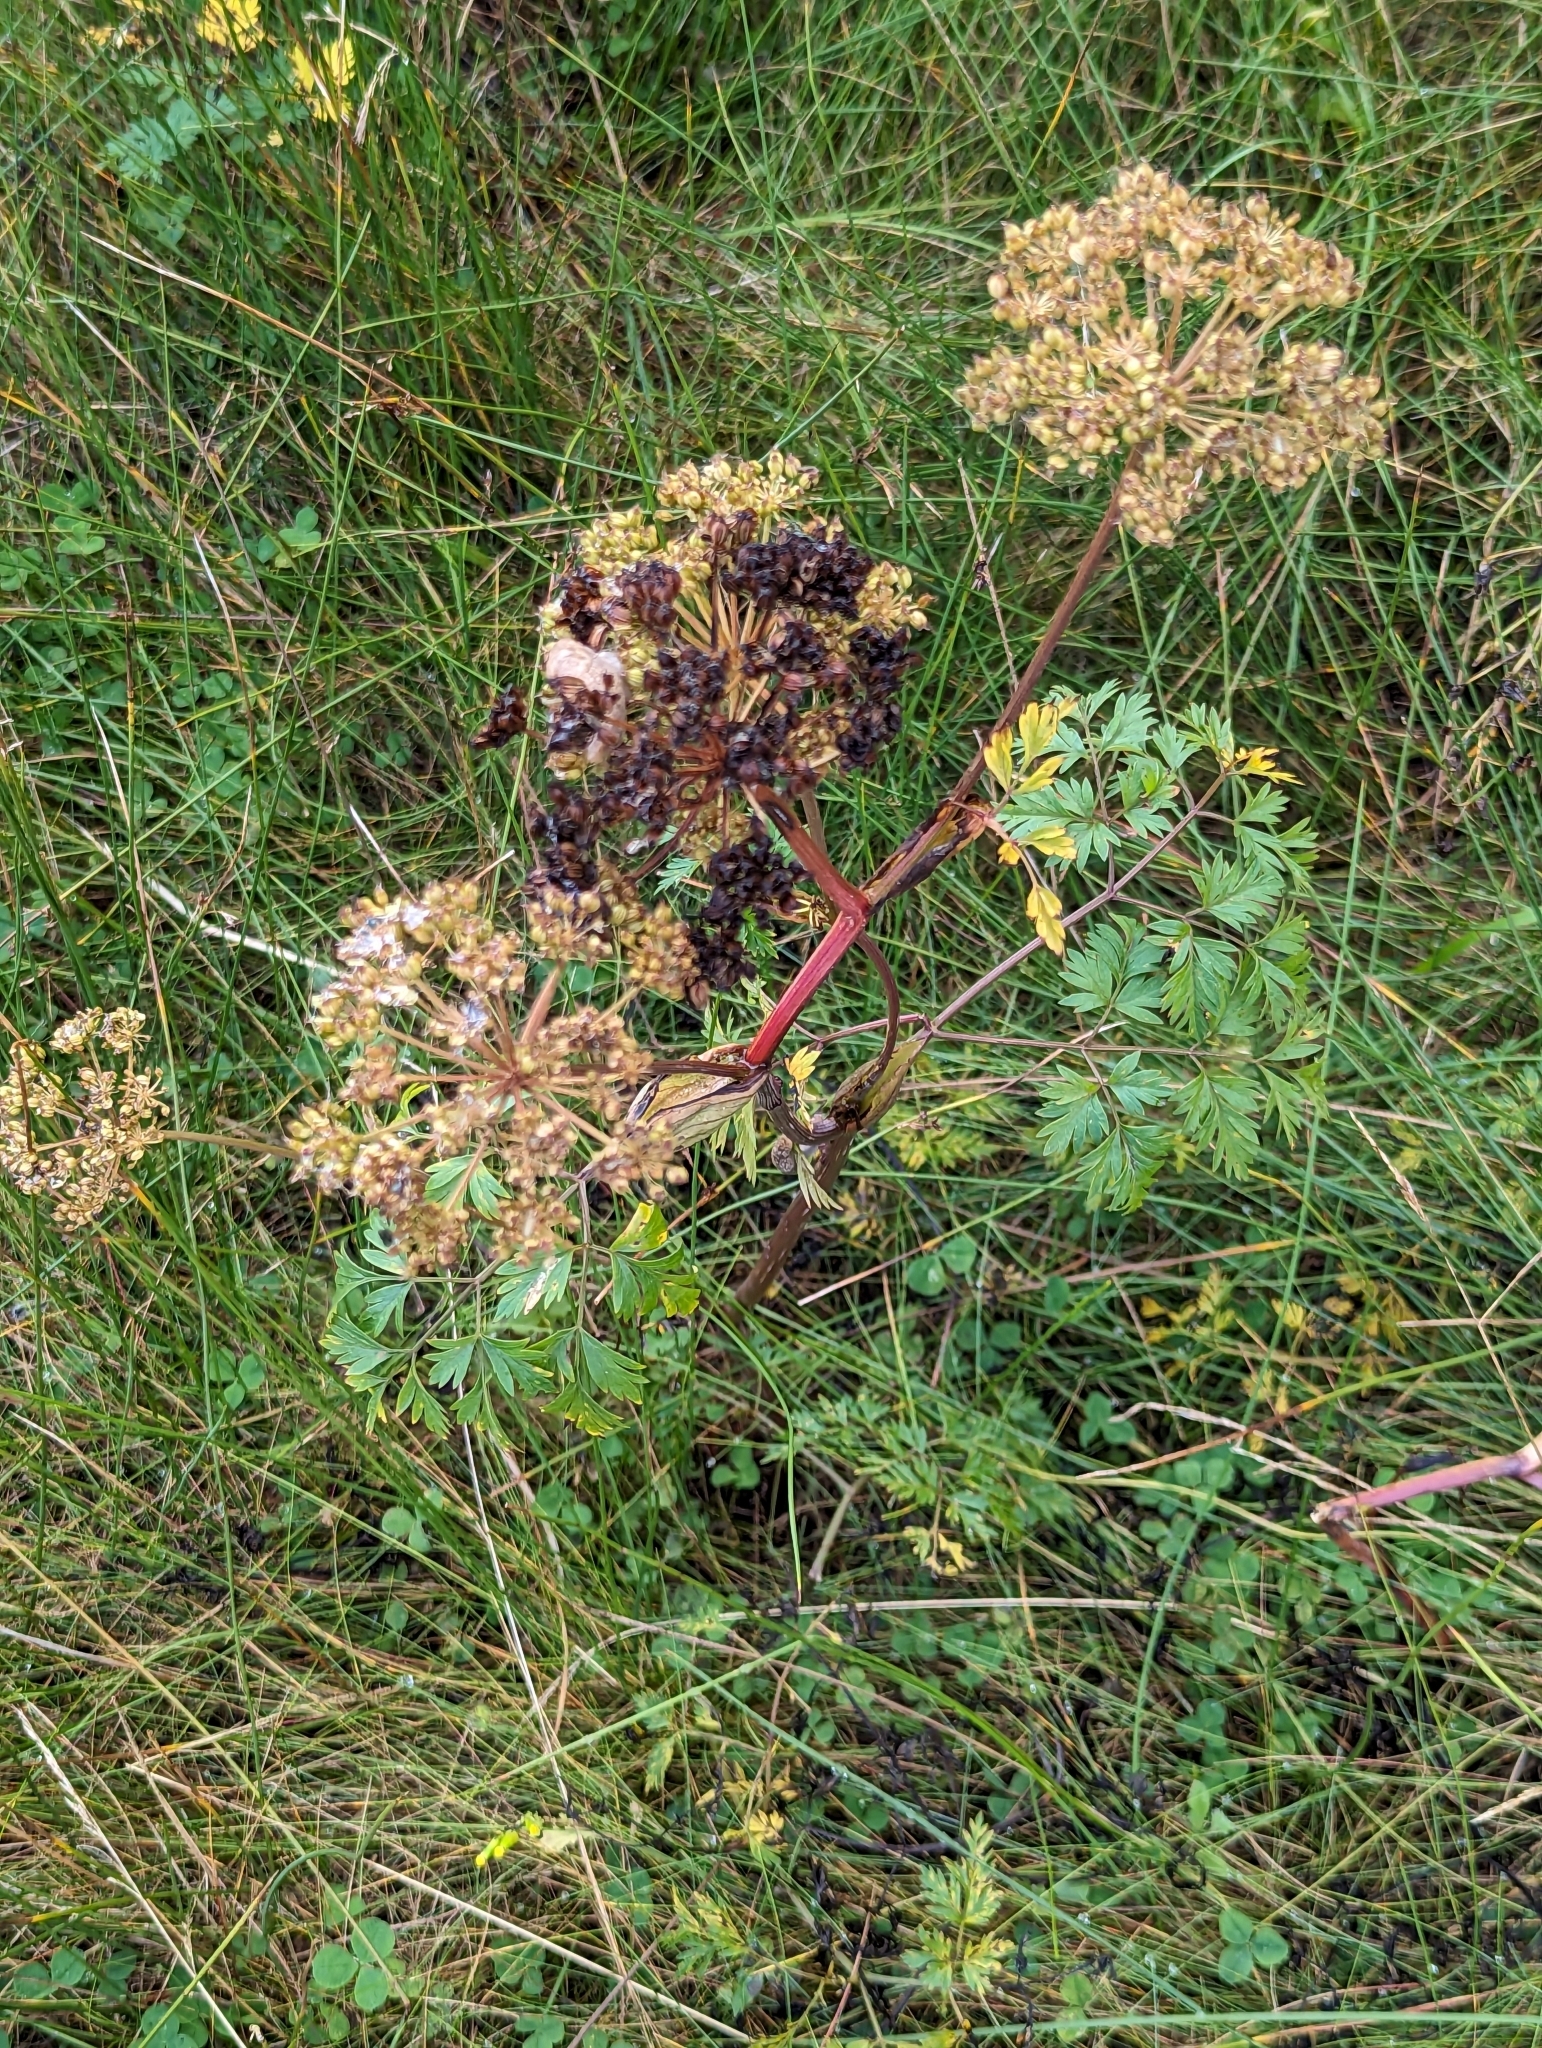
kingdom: Plantae
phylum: Tracheophyta
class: Magnoliopsida
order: Apiales
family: Apiaceae
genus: Kreidion
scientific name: Kreidion chinensis
